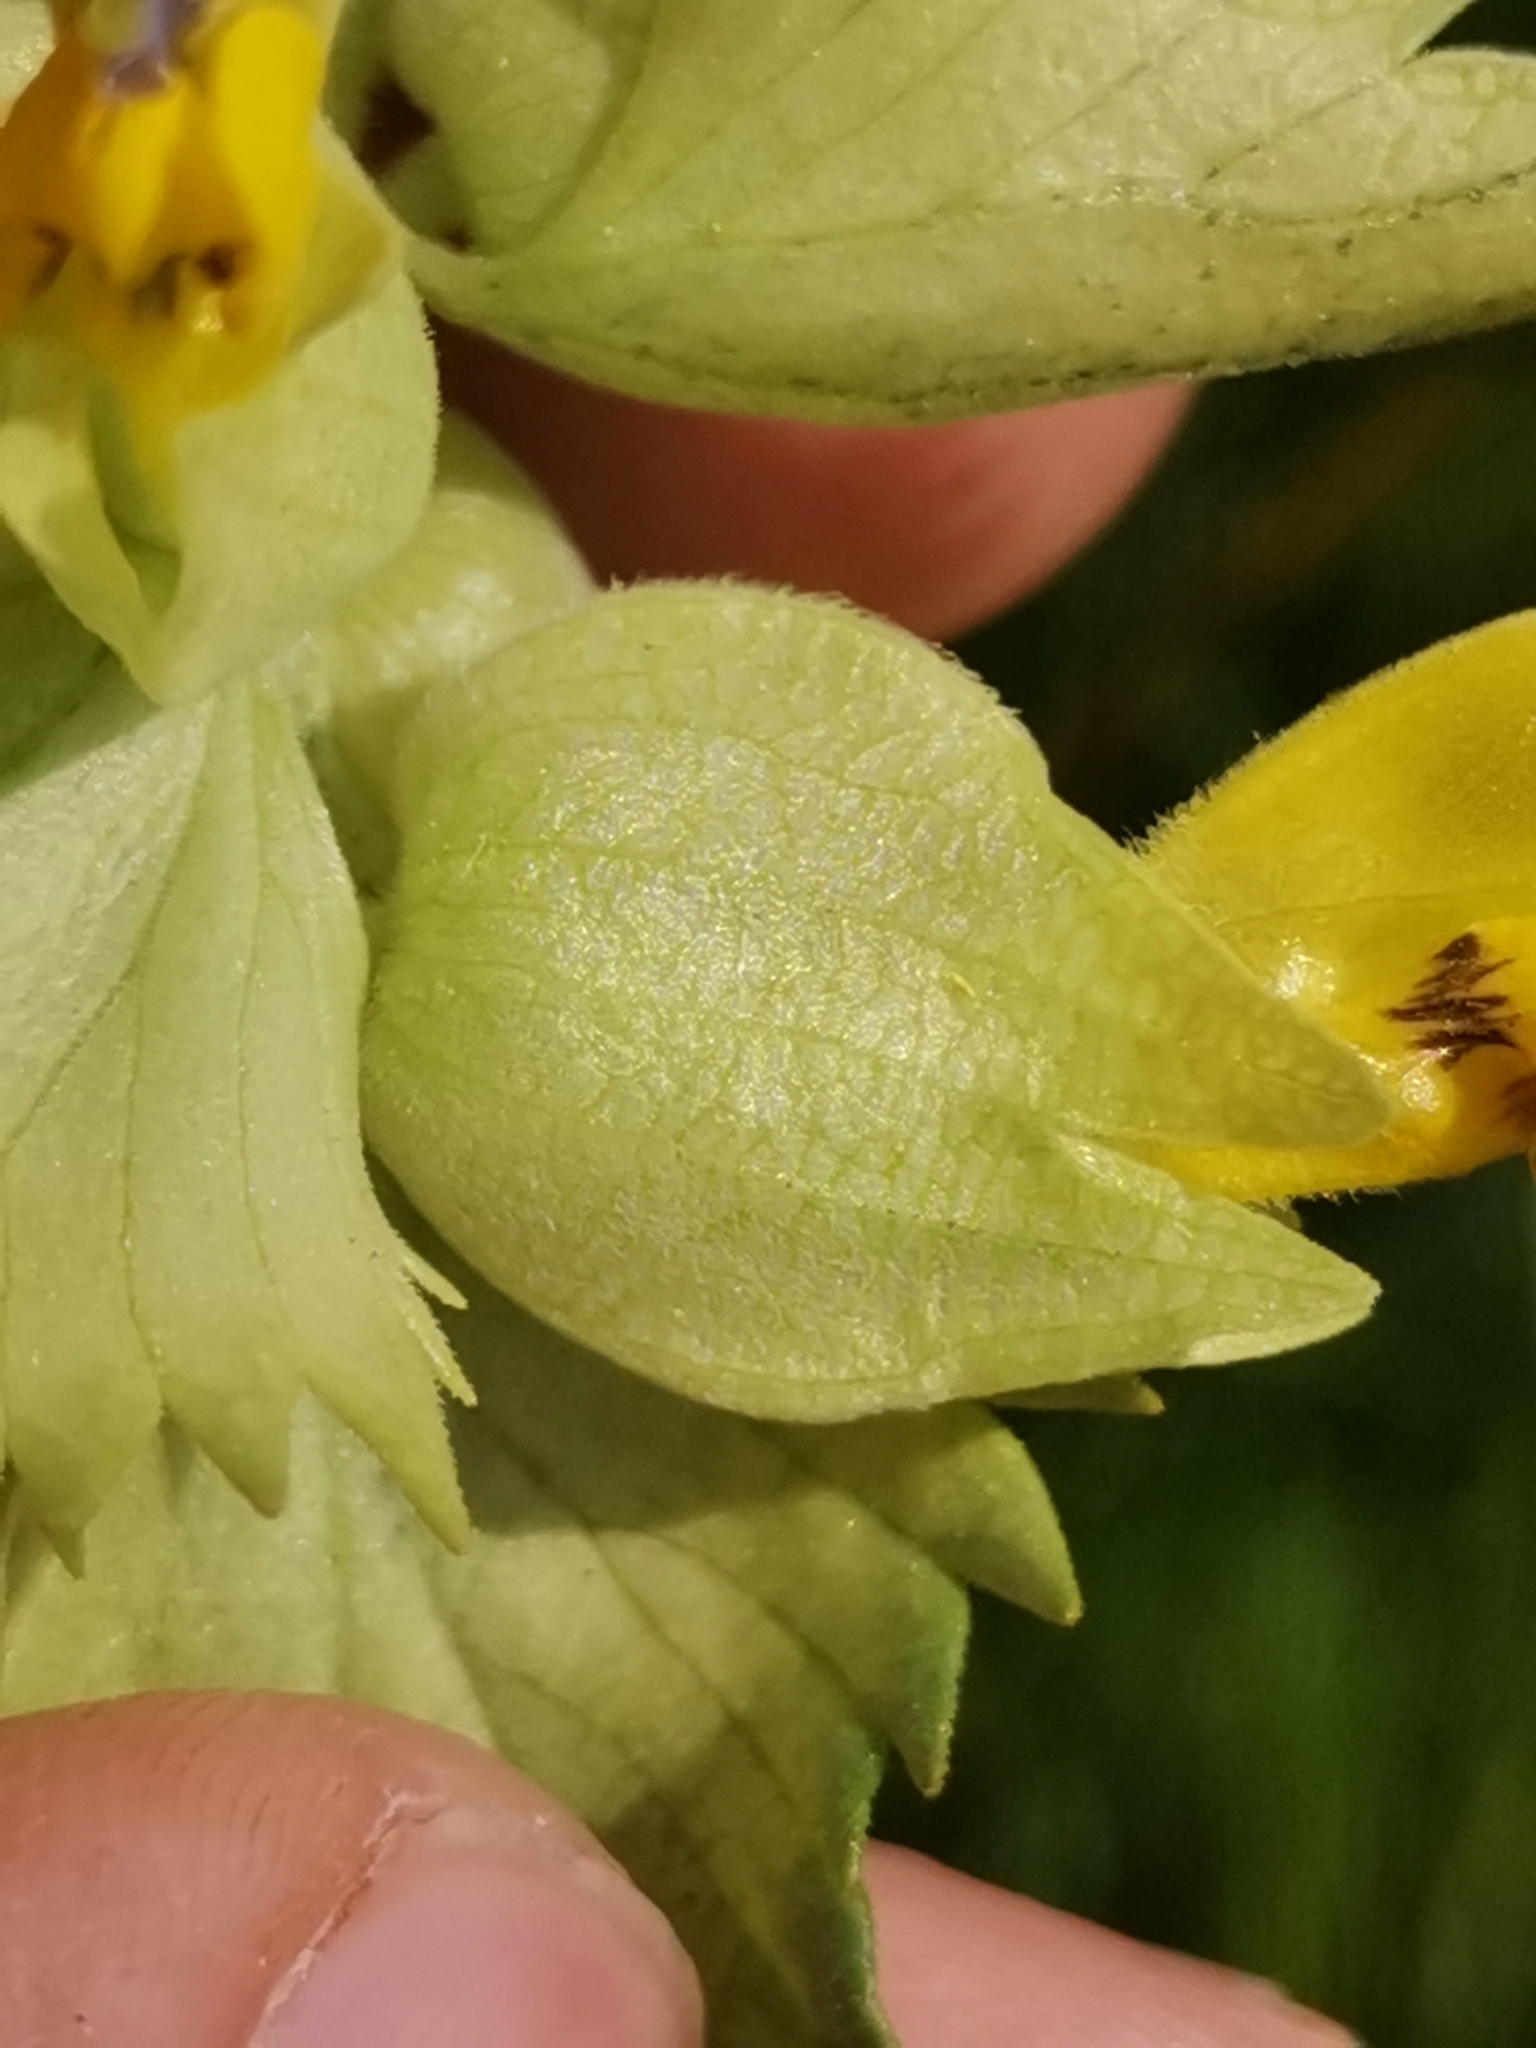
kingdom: Plantae
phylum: Tracheophyta
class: Magnoliopsida
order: Lamiales
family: Orobanchaceae
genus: Rhinanthus
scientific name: Rhinanthus freynii
